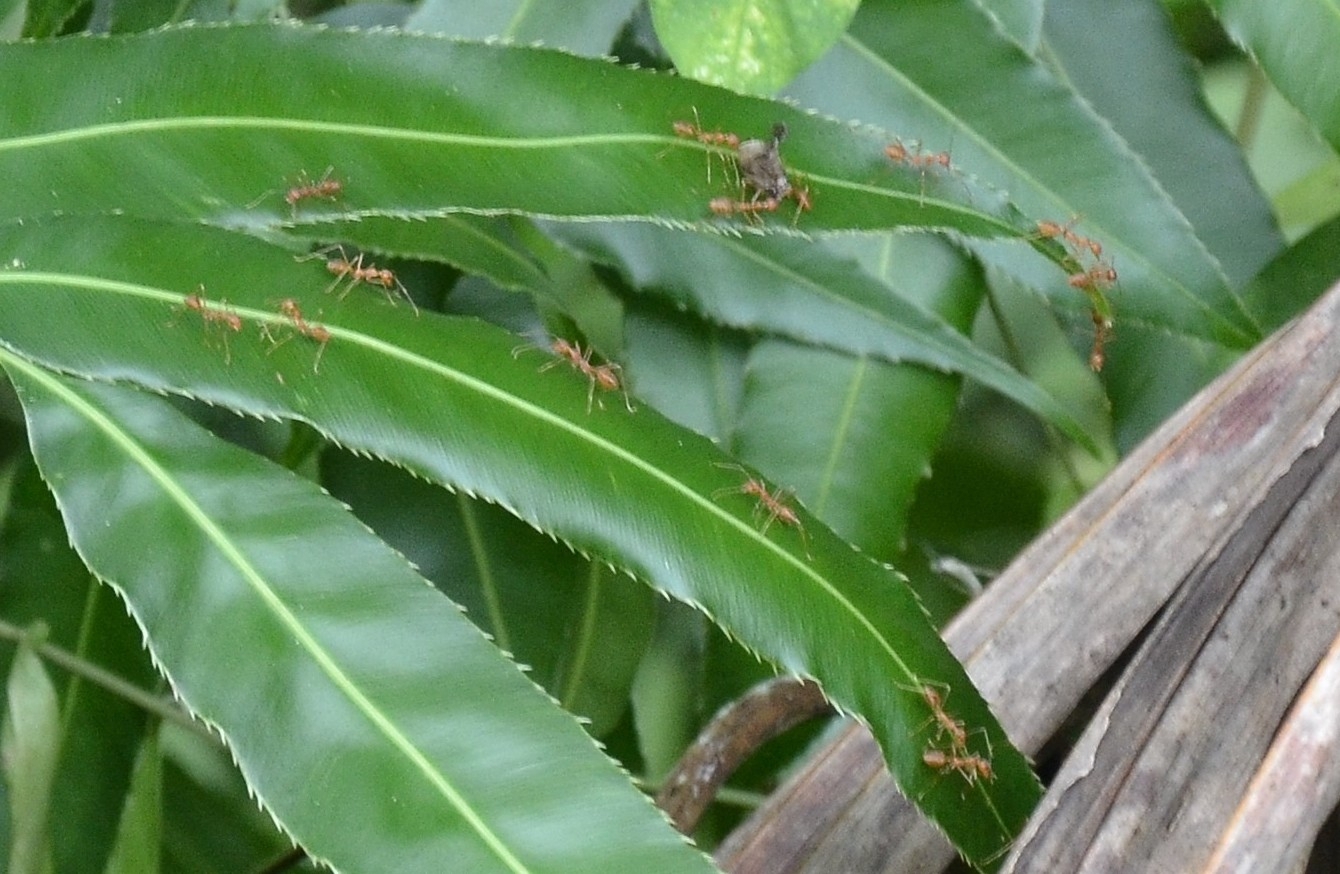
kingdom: Animalia
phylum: Arthropoda
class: Insecta
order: Hymenoptera
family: Formicidae
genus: Oecophylla
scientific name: Oecophylla smaragdina
